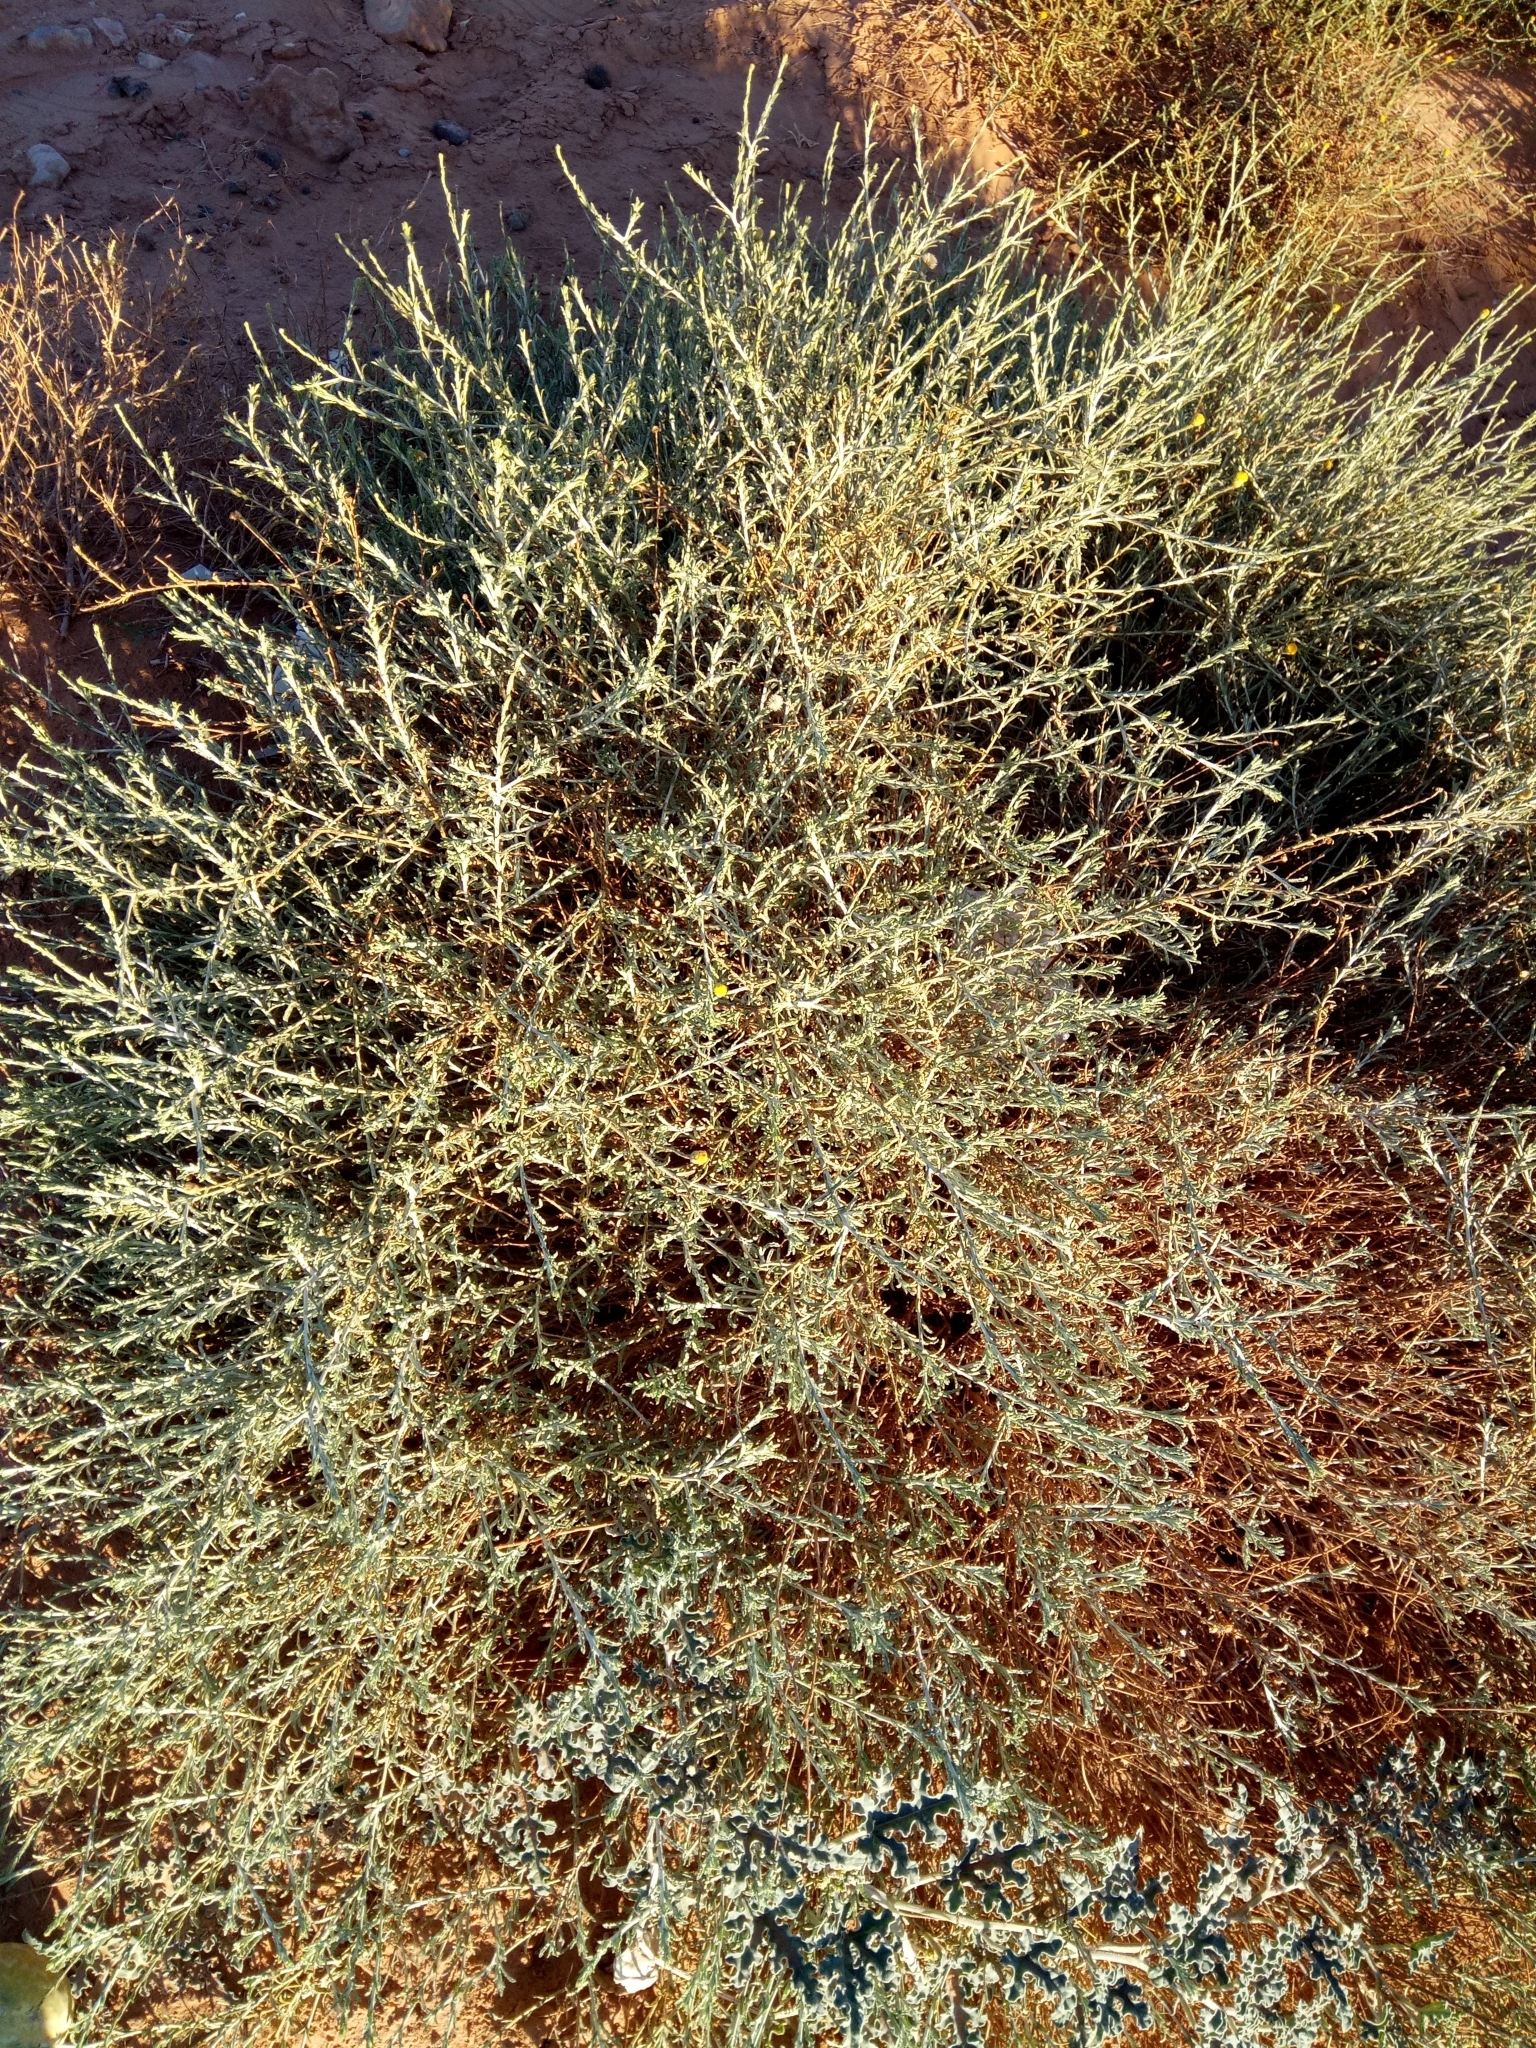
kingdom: Plantae
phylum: Tracheophyta
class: Magnoliopsida
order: Asterales
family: Asteraceae
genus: Pulicaria
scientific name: Pulicaria undulata
